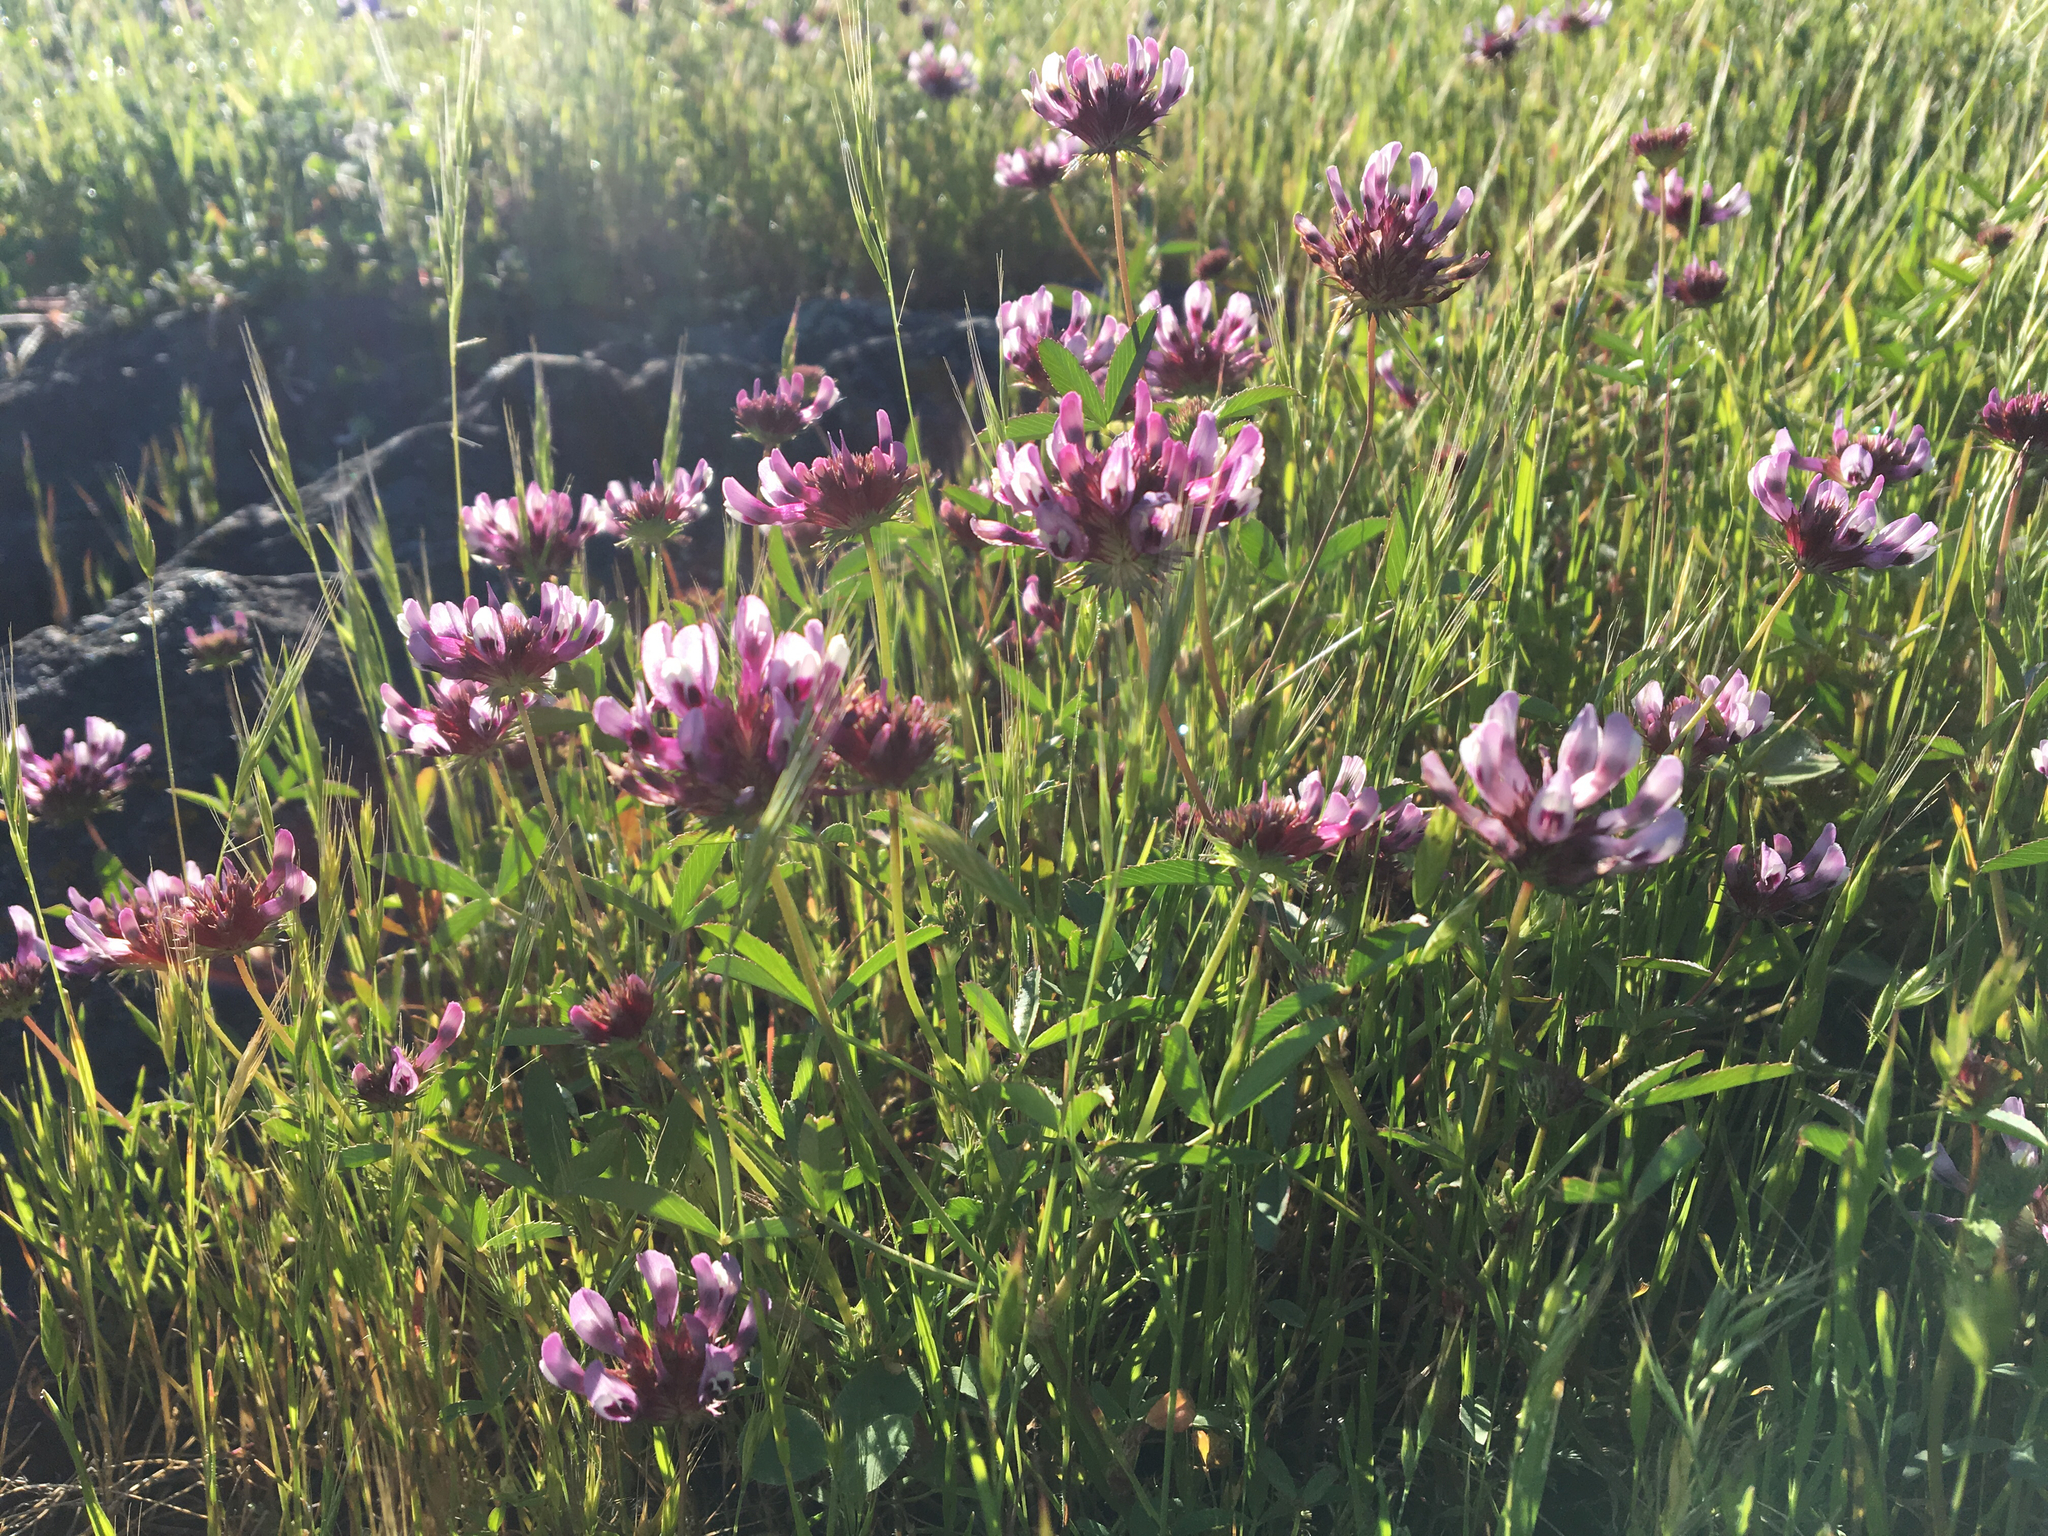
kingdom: Plantae
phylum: Tracheophyta
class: Magnoliopsida
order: Fabales
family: Fabaceae
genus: Trifolium
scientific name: Trifolium willdenovii
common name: Tomcat clover
